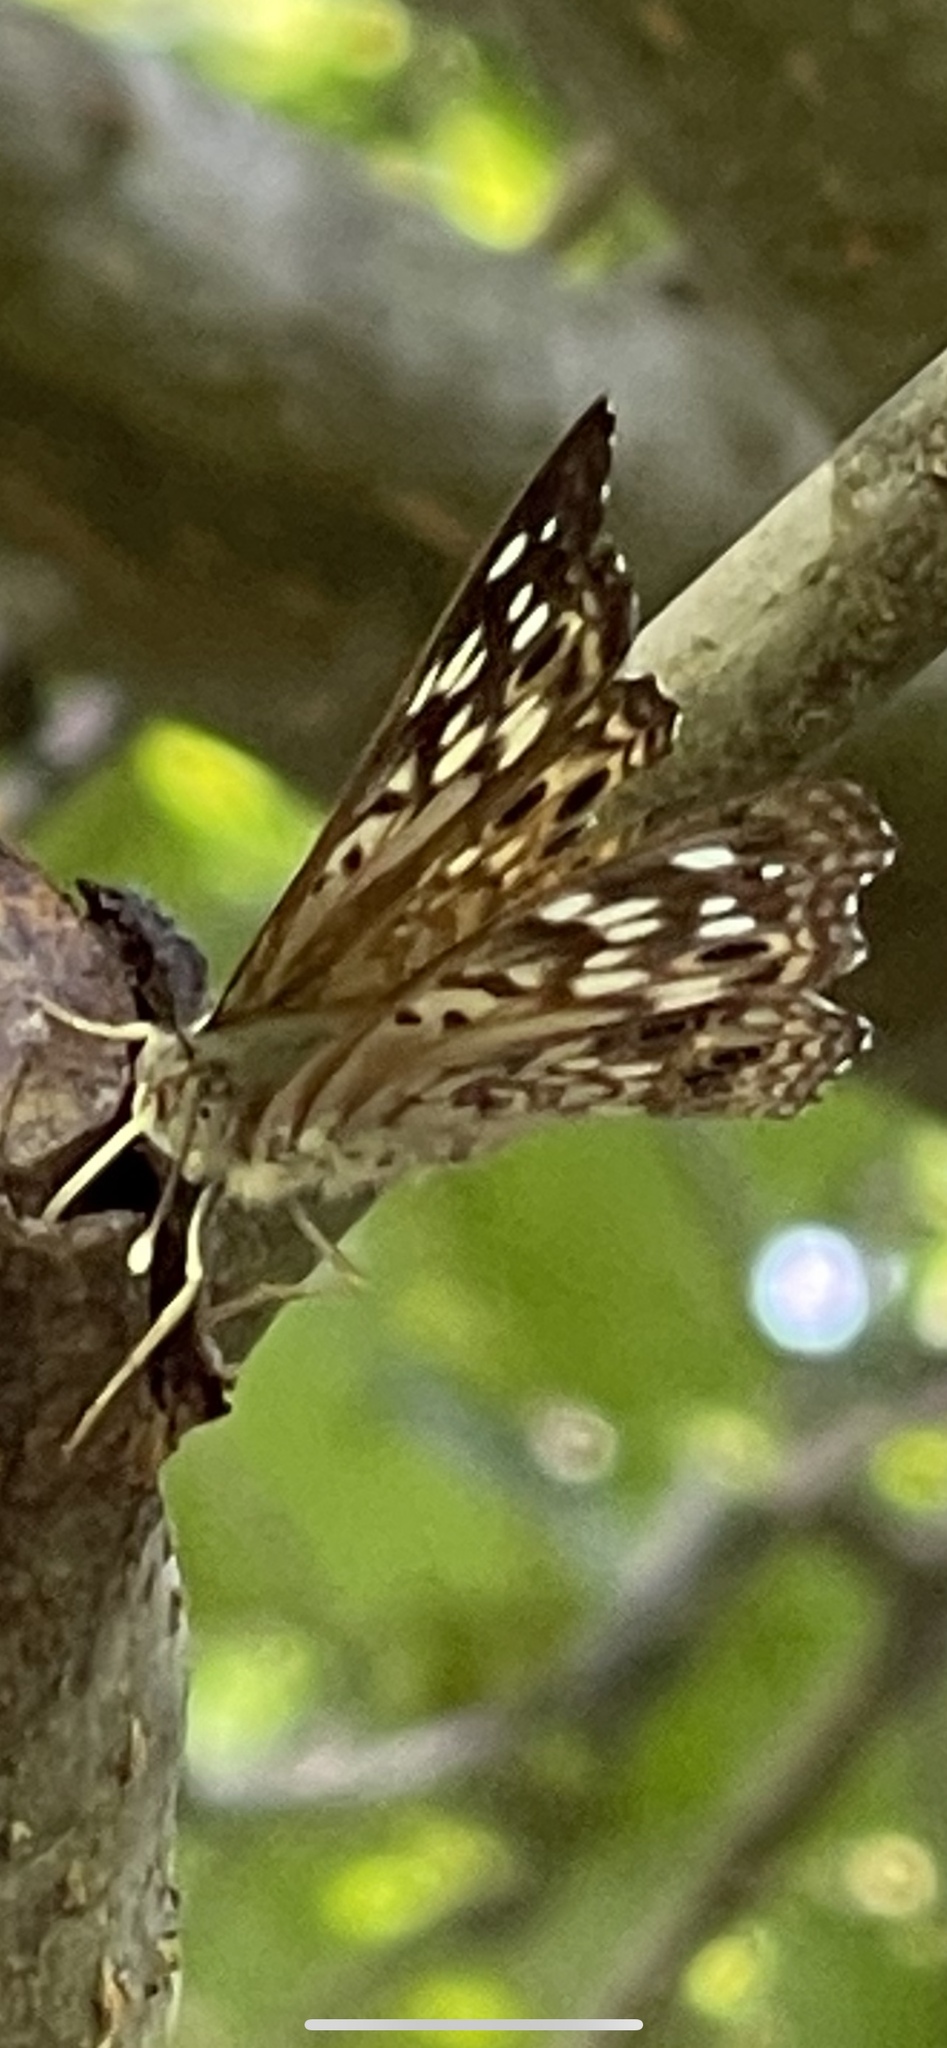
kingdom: Animalia
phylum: Arthropoda
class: Insecta
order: Lepidoptera
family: Nymphalidae
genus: Asterocampa
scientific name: Asterocampa celtis
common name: Hackberry emperor
